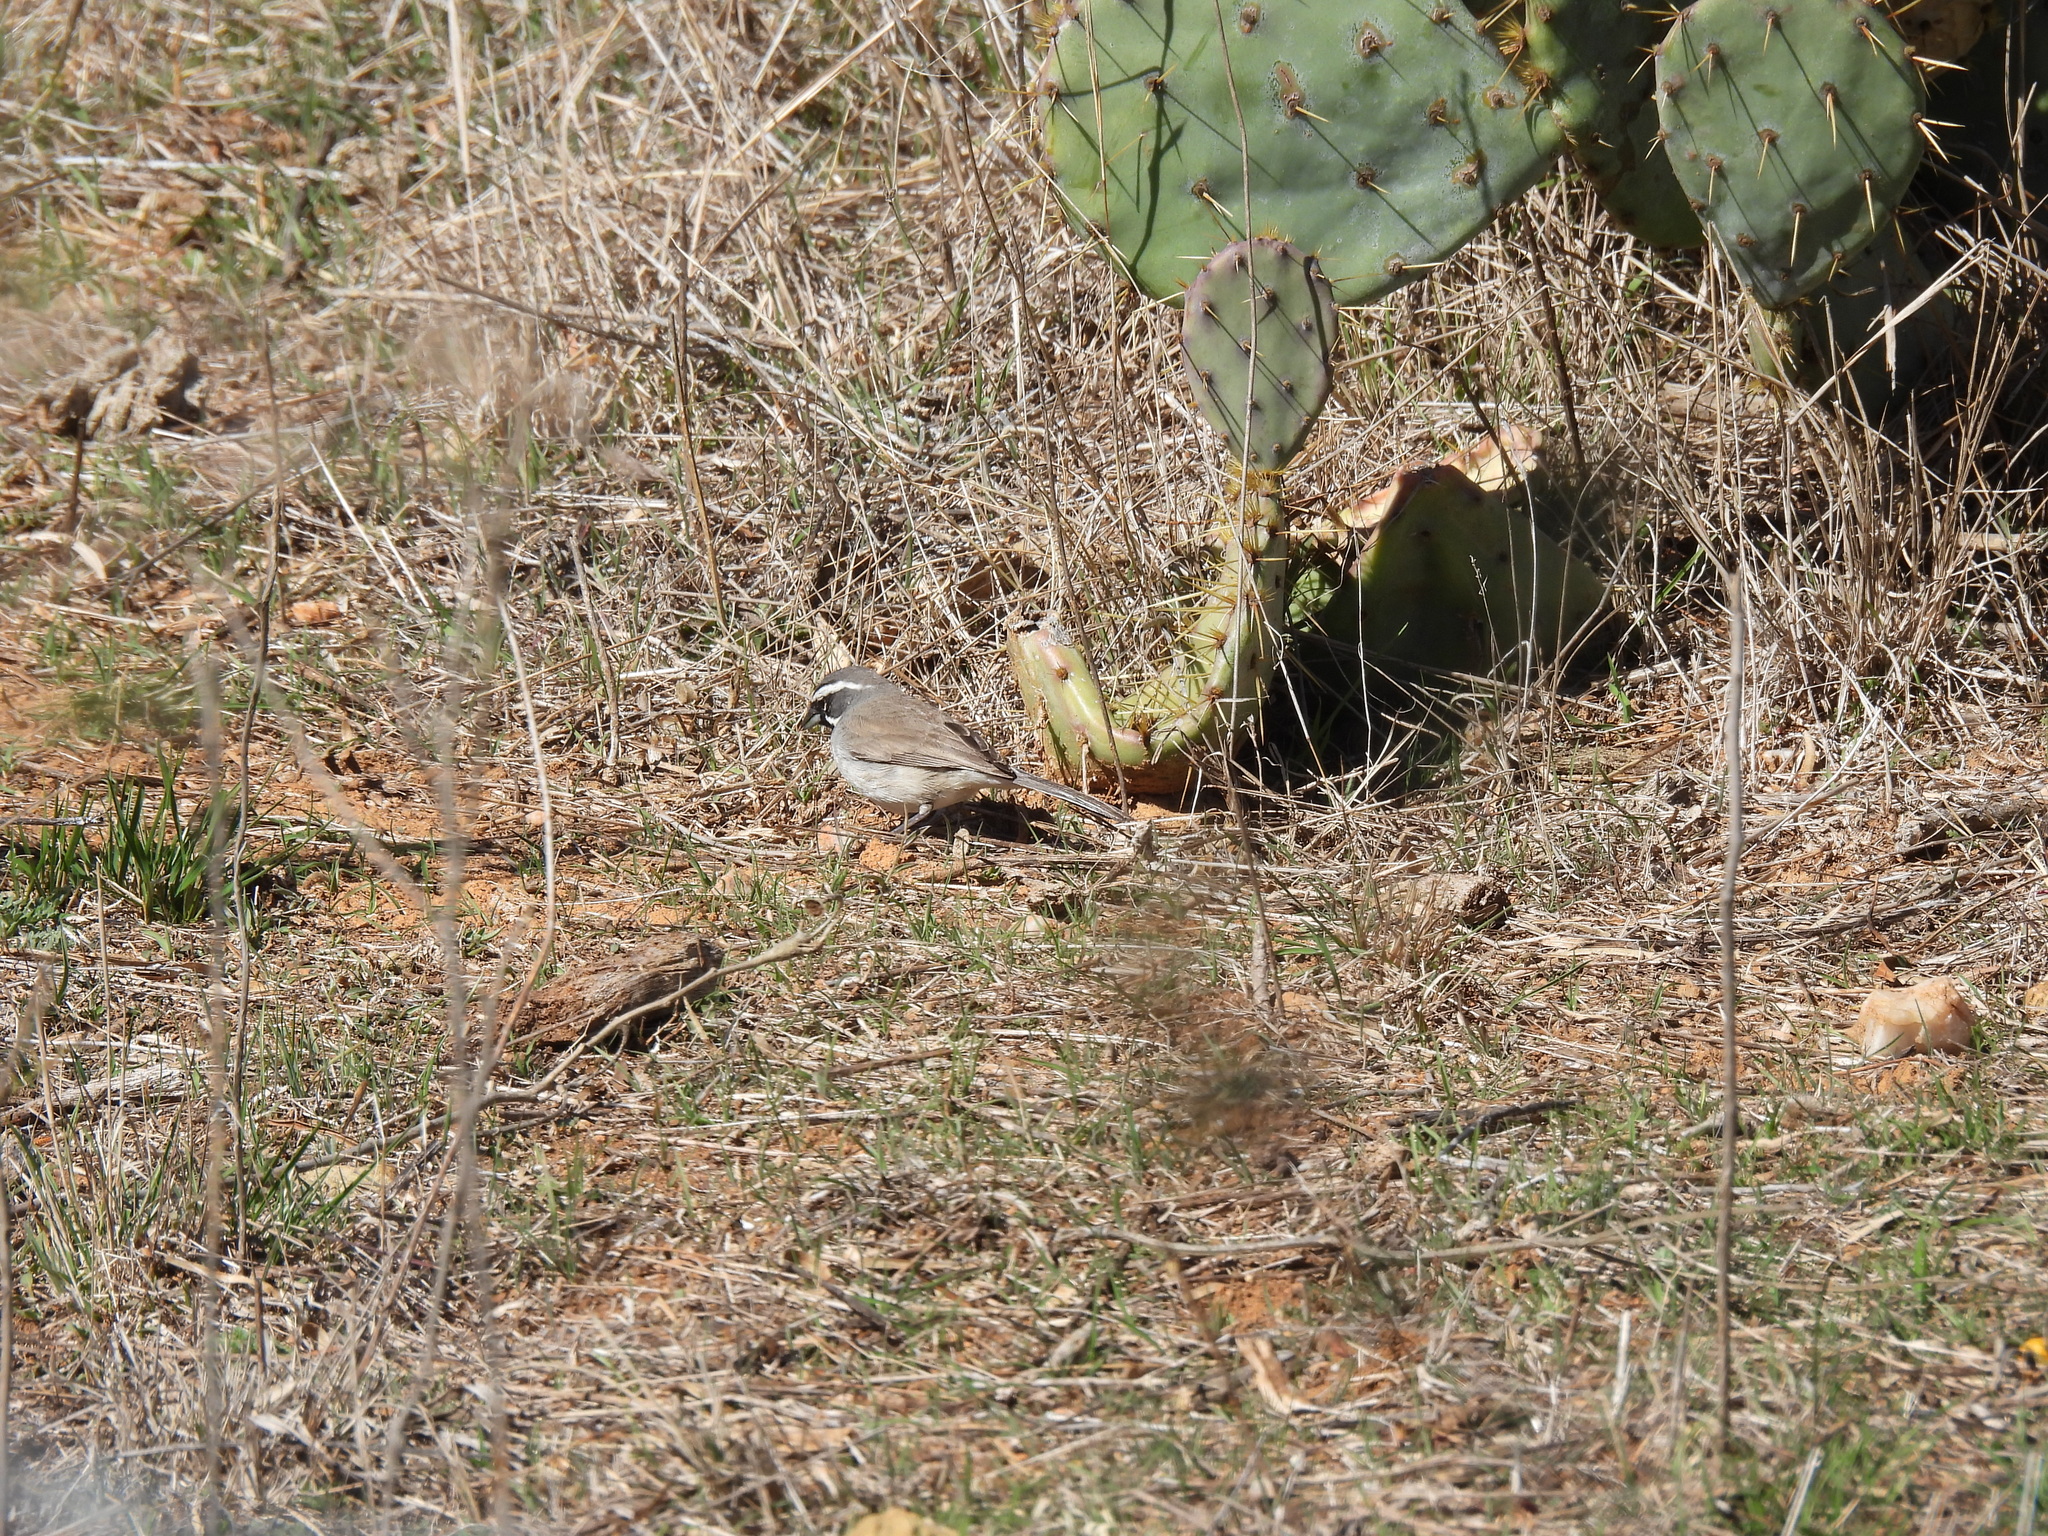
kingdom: Animalia
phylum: Chordata
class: Aves
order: Passeriformes
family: Passerellidae
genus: Amphispiza
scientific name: Amphispiza bilineata
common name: Black-throated sparrow
